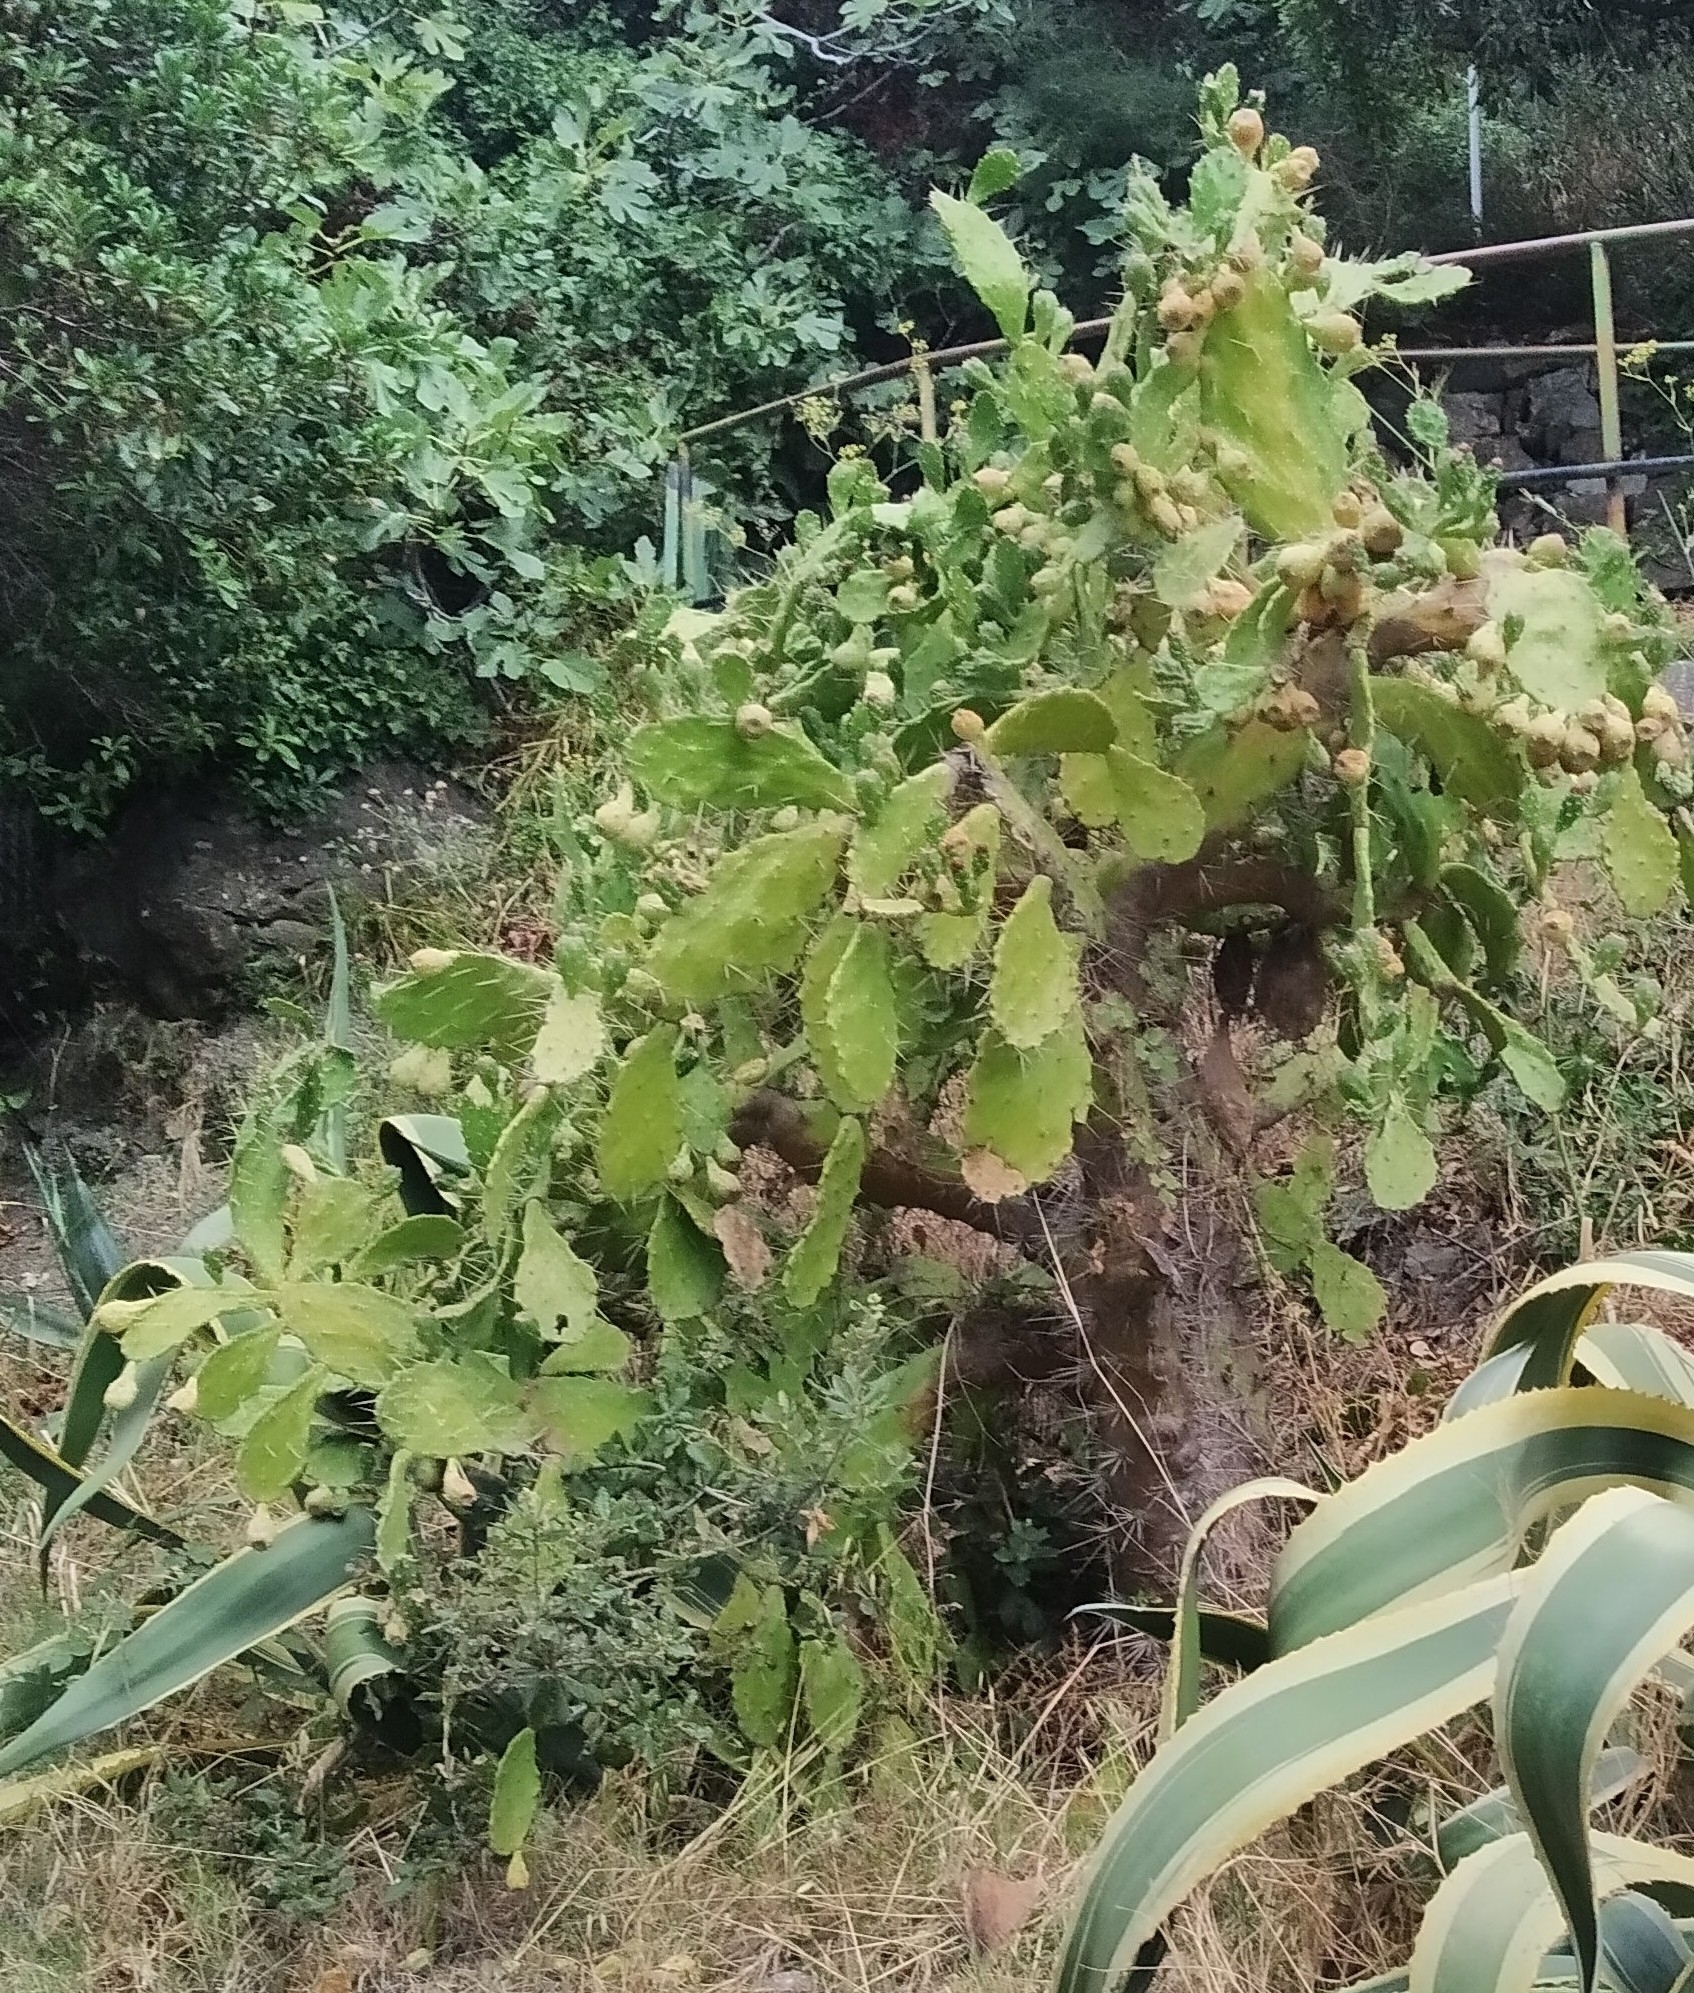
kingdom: Plantae
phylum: Tracheophyta
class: Magnoliopsida
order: Caryophyllales
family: Cactaceae
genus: Opuntia
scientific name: Opuntia monacantha
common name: Common pricklypear
